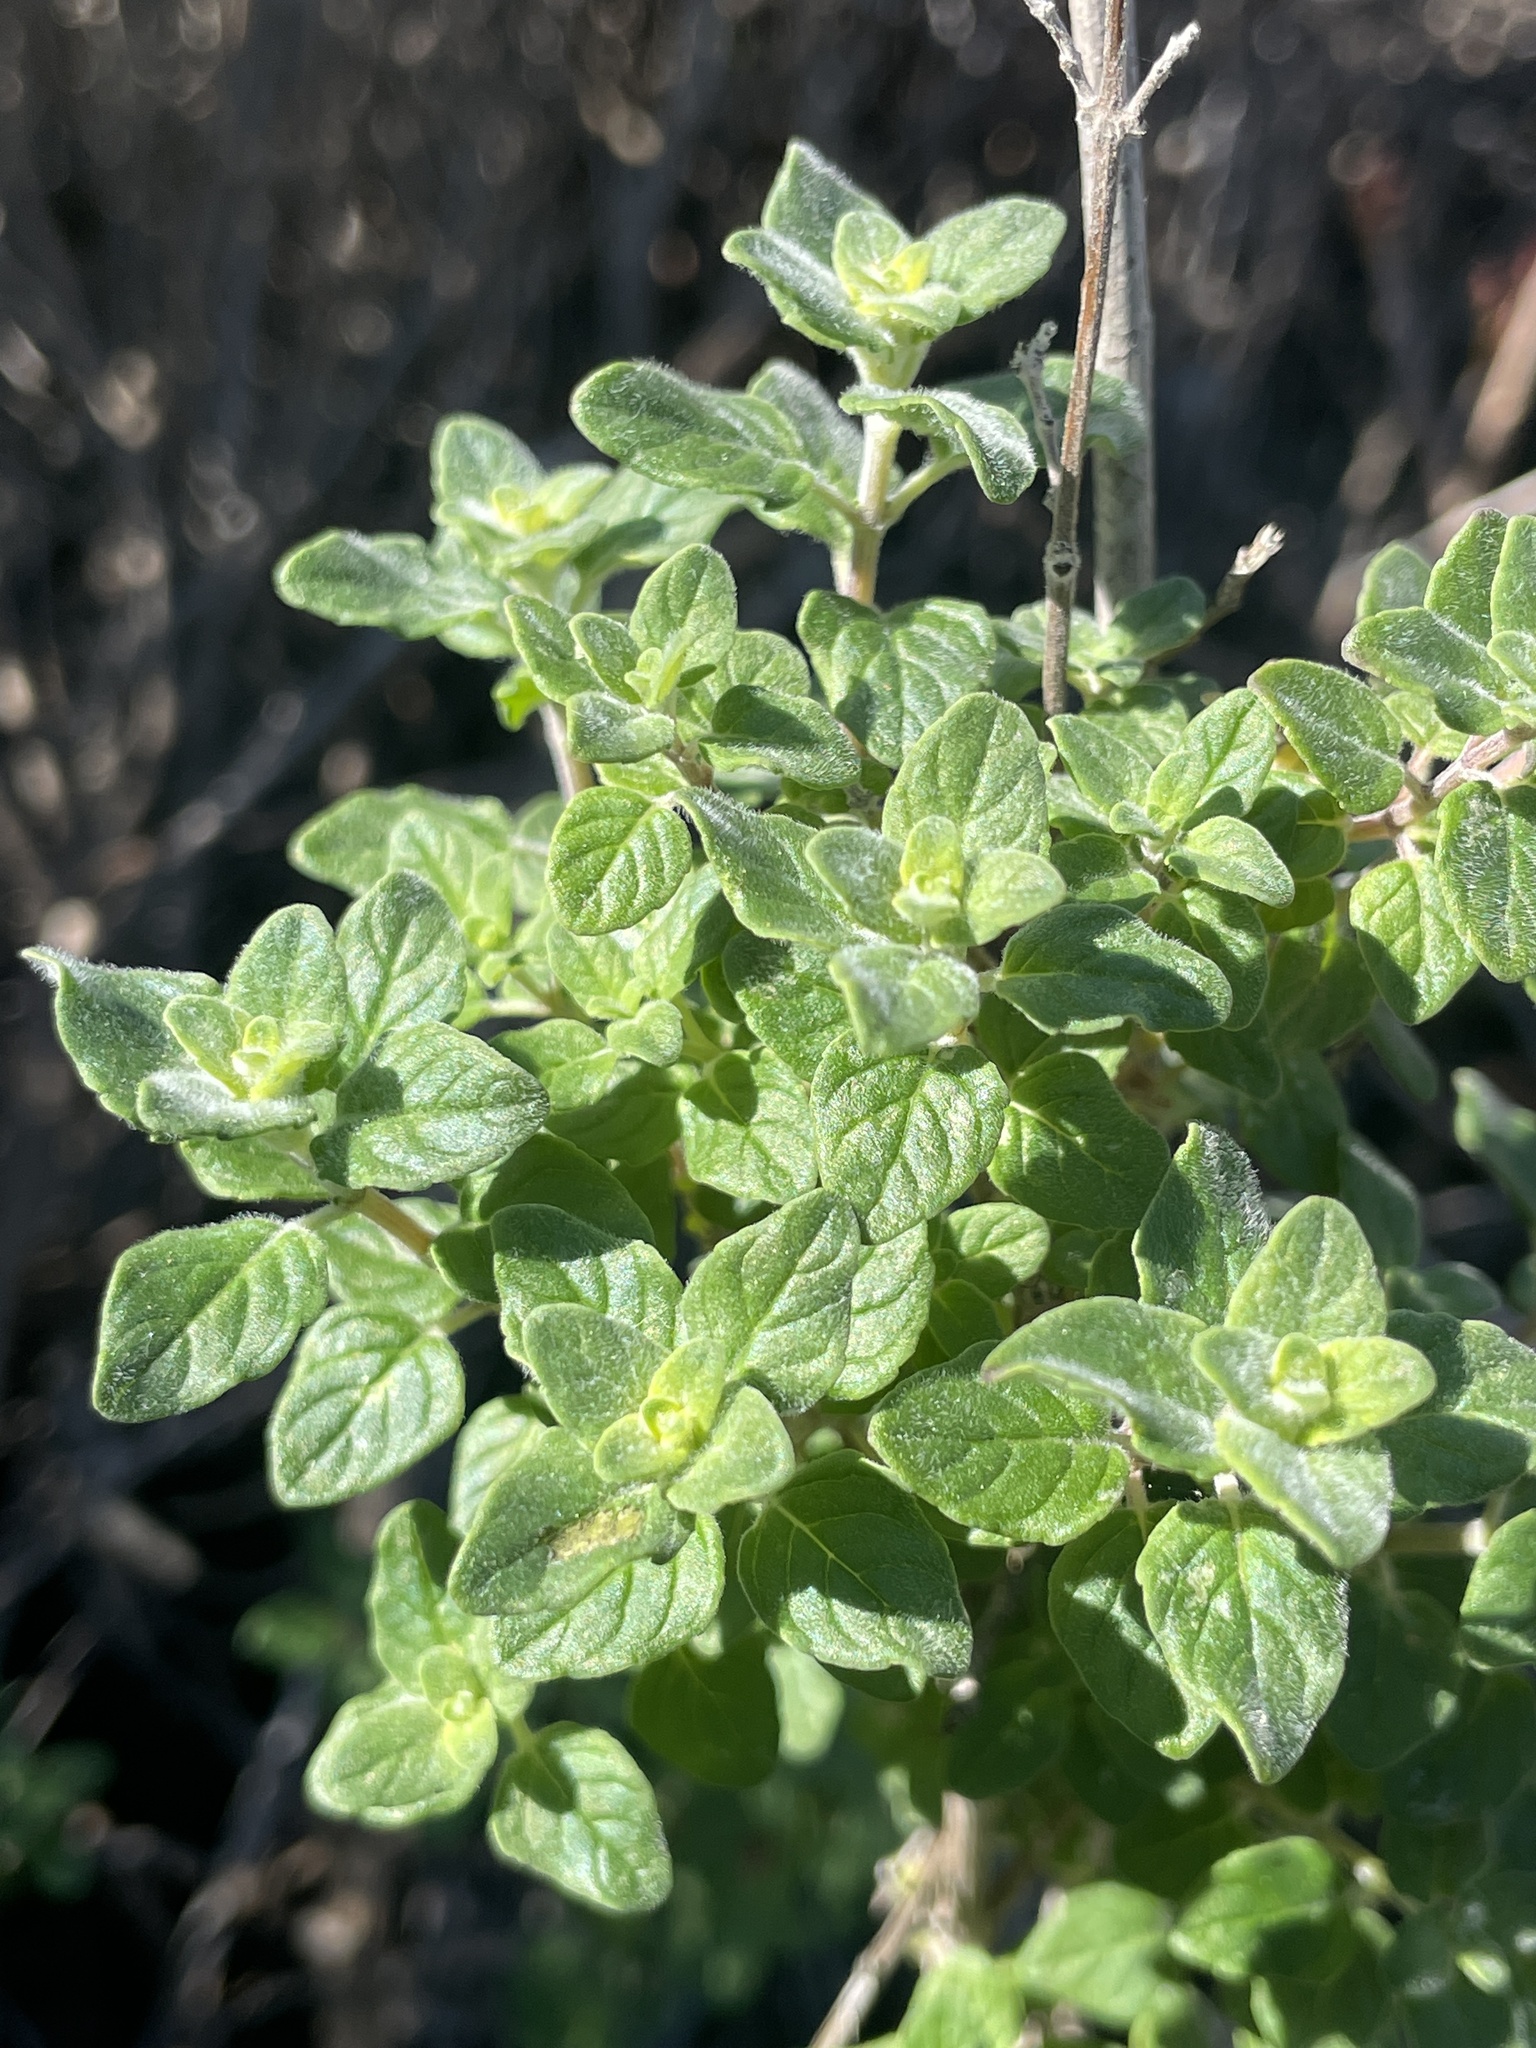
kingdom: Plantae
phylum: Tracheophyta
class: Magnoliopsida
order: Lamiales
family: Lamiaceae
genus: Monardella
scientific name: Monardella odoratissima
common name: Pacific monardella
